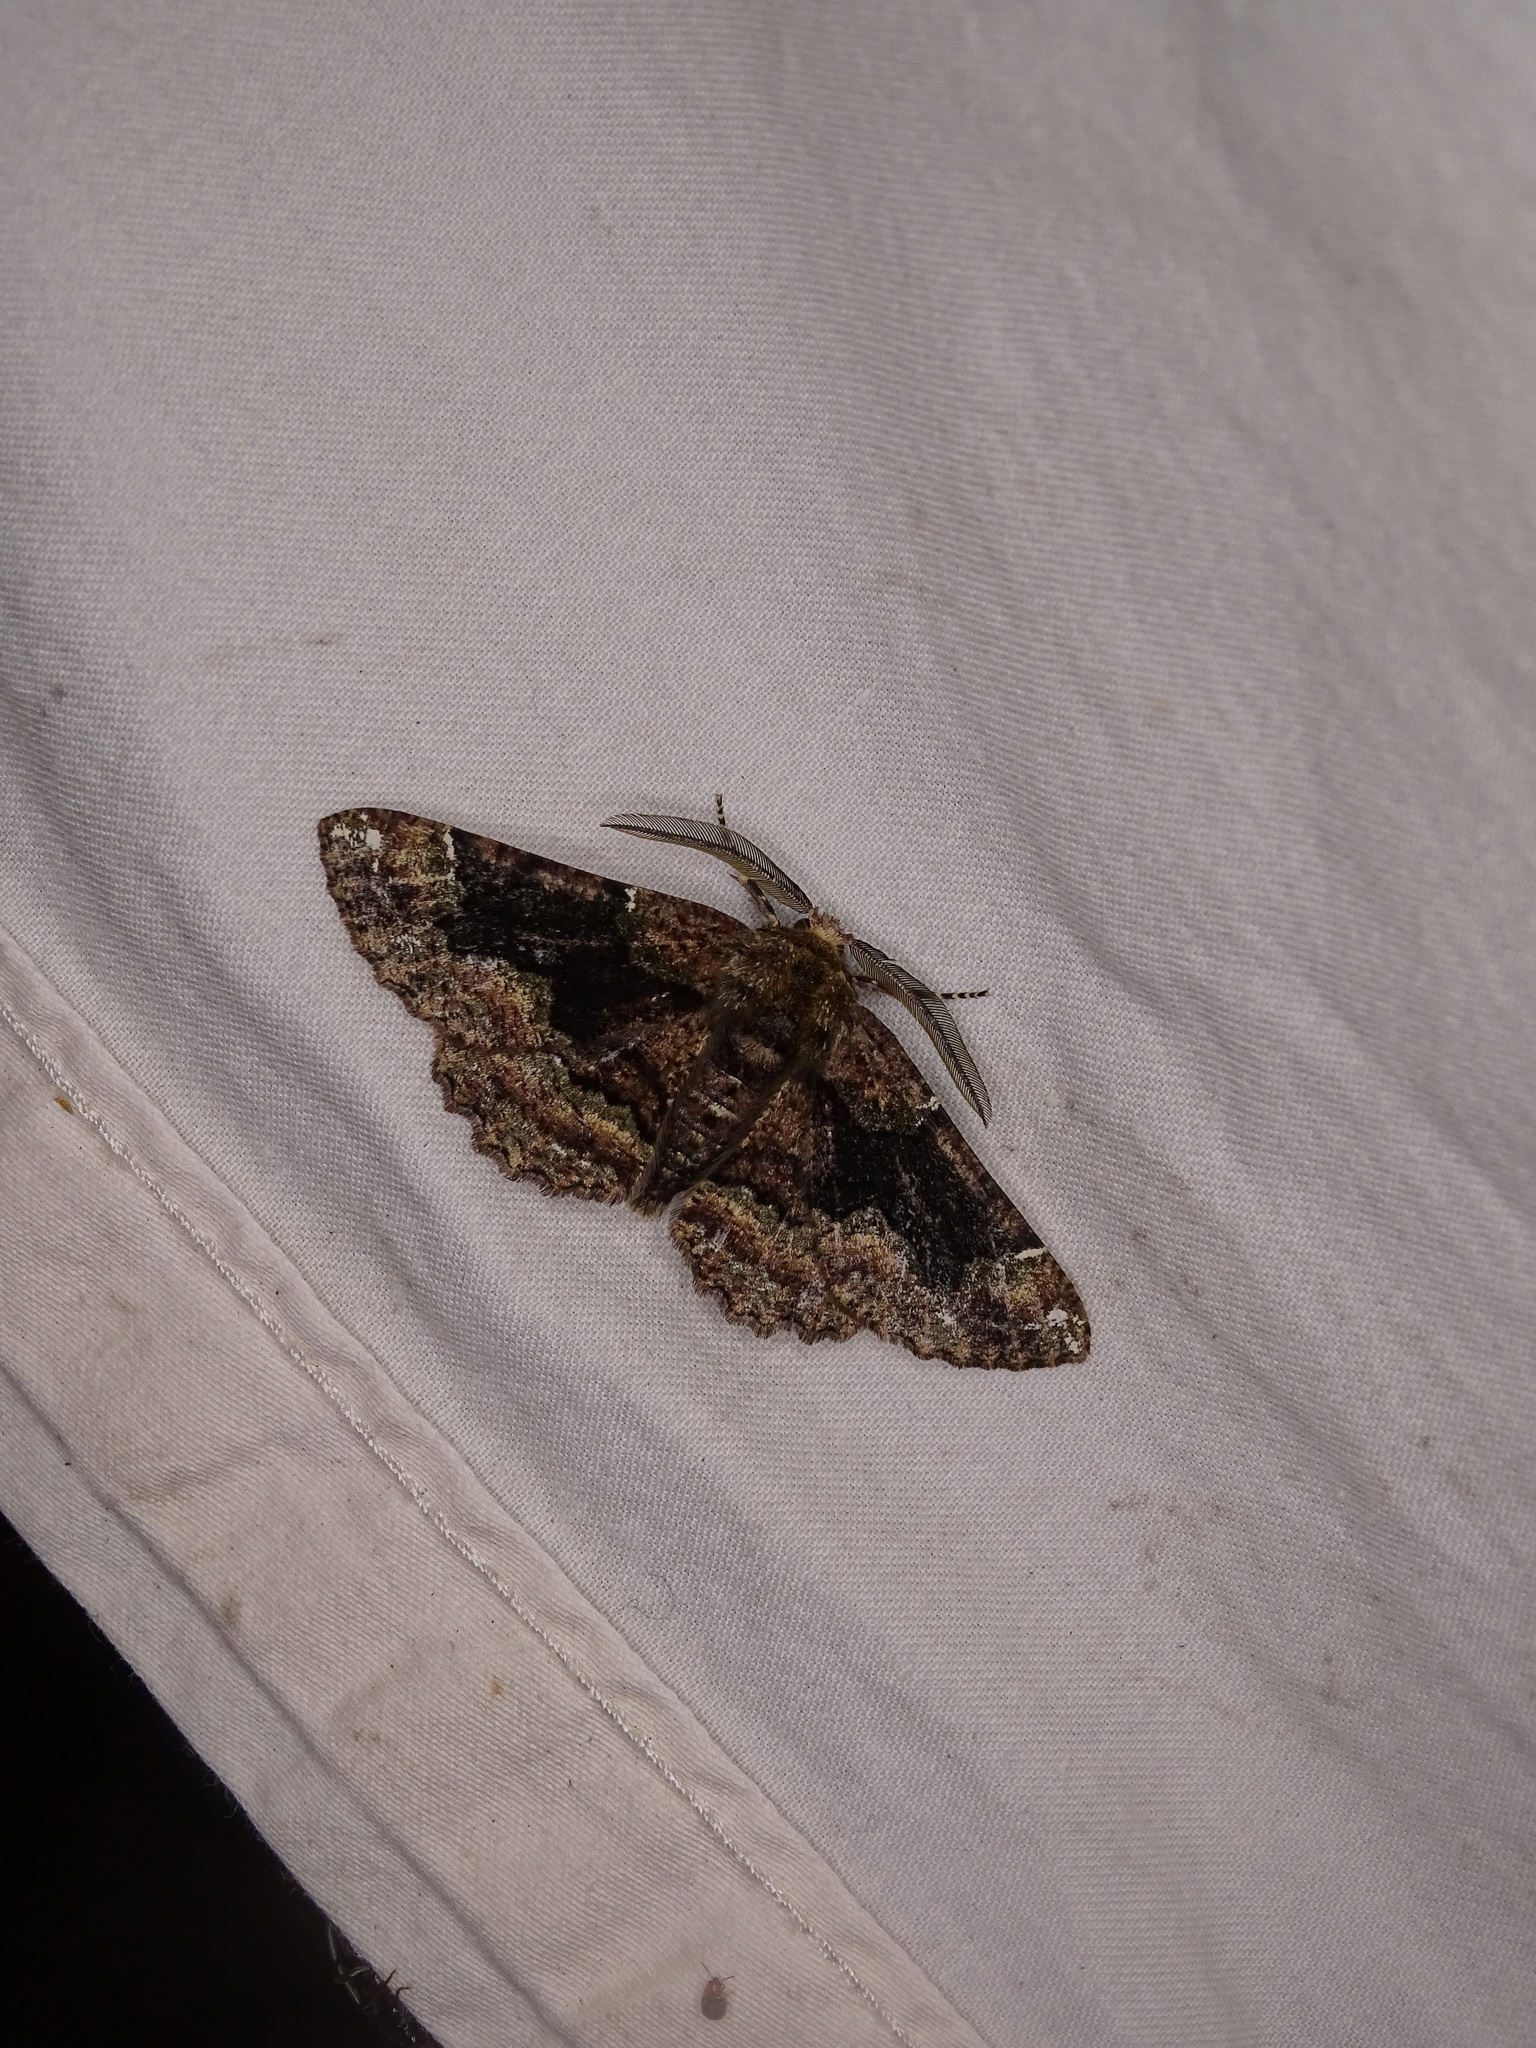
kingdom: Animalia
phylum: Arthropoda
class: Insecta
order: Lepidoptera
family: Geometridae
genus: Phaeoura
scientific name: Phaeoura quernaria
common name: Oak beauty
